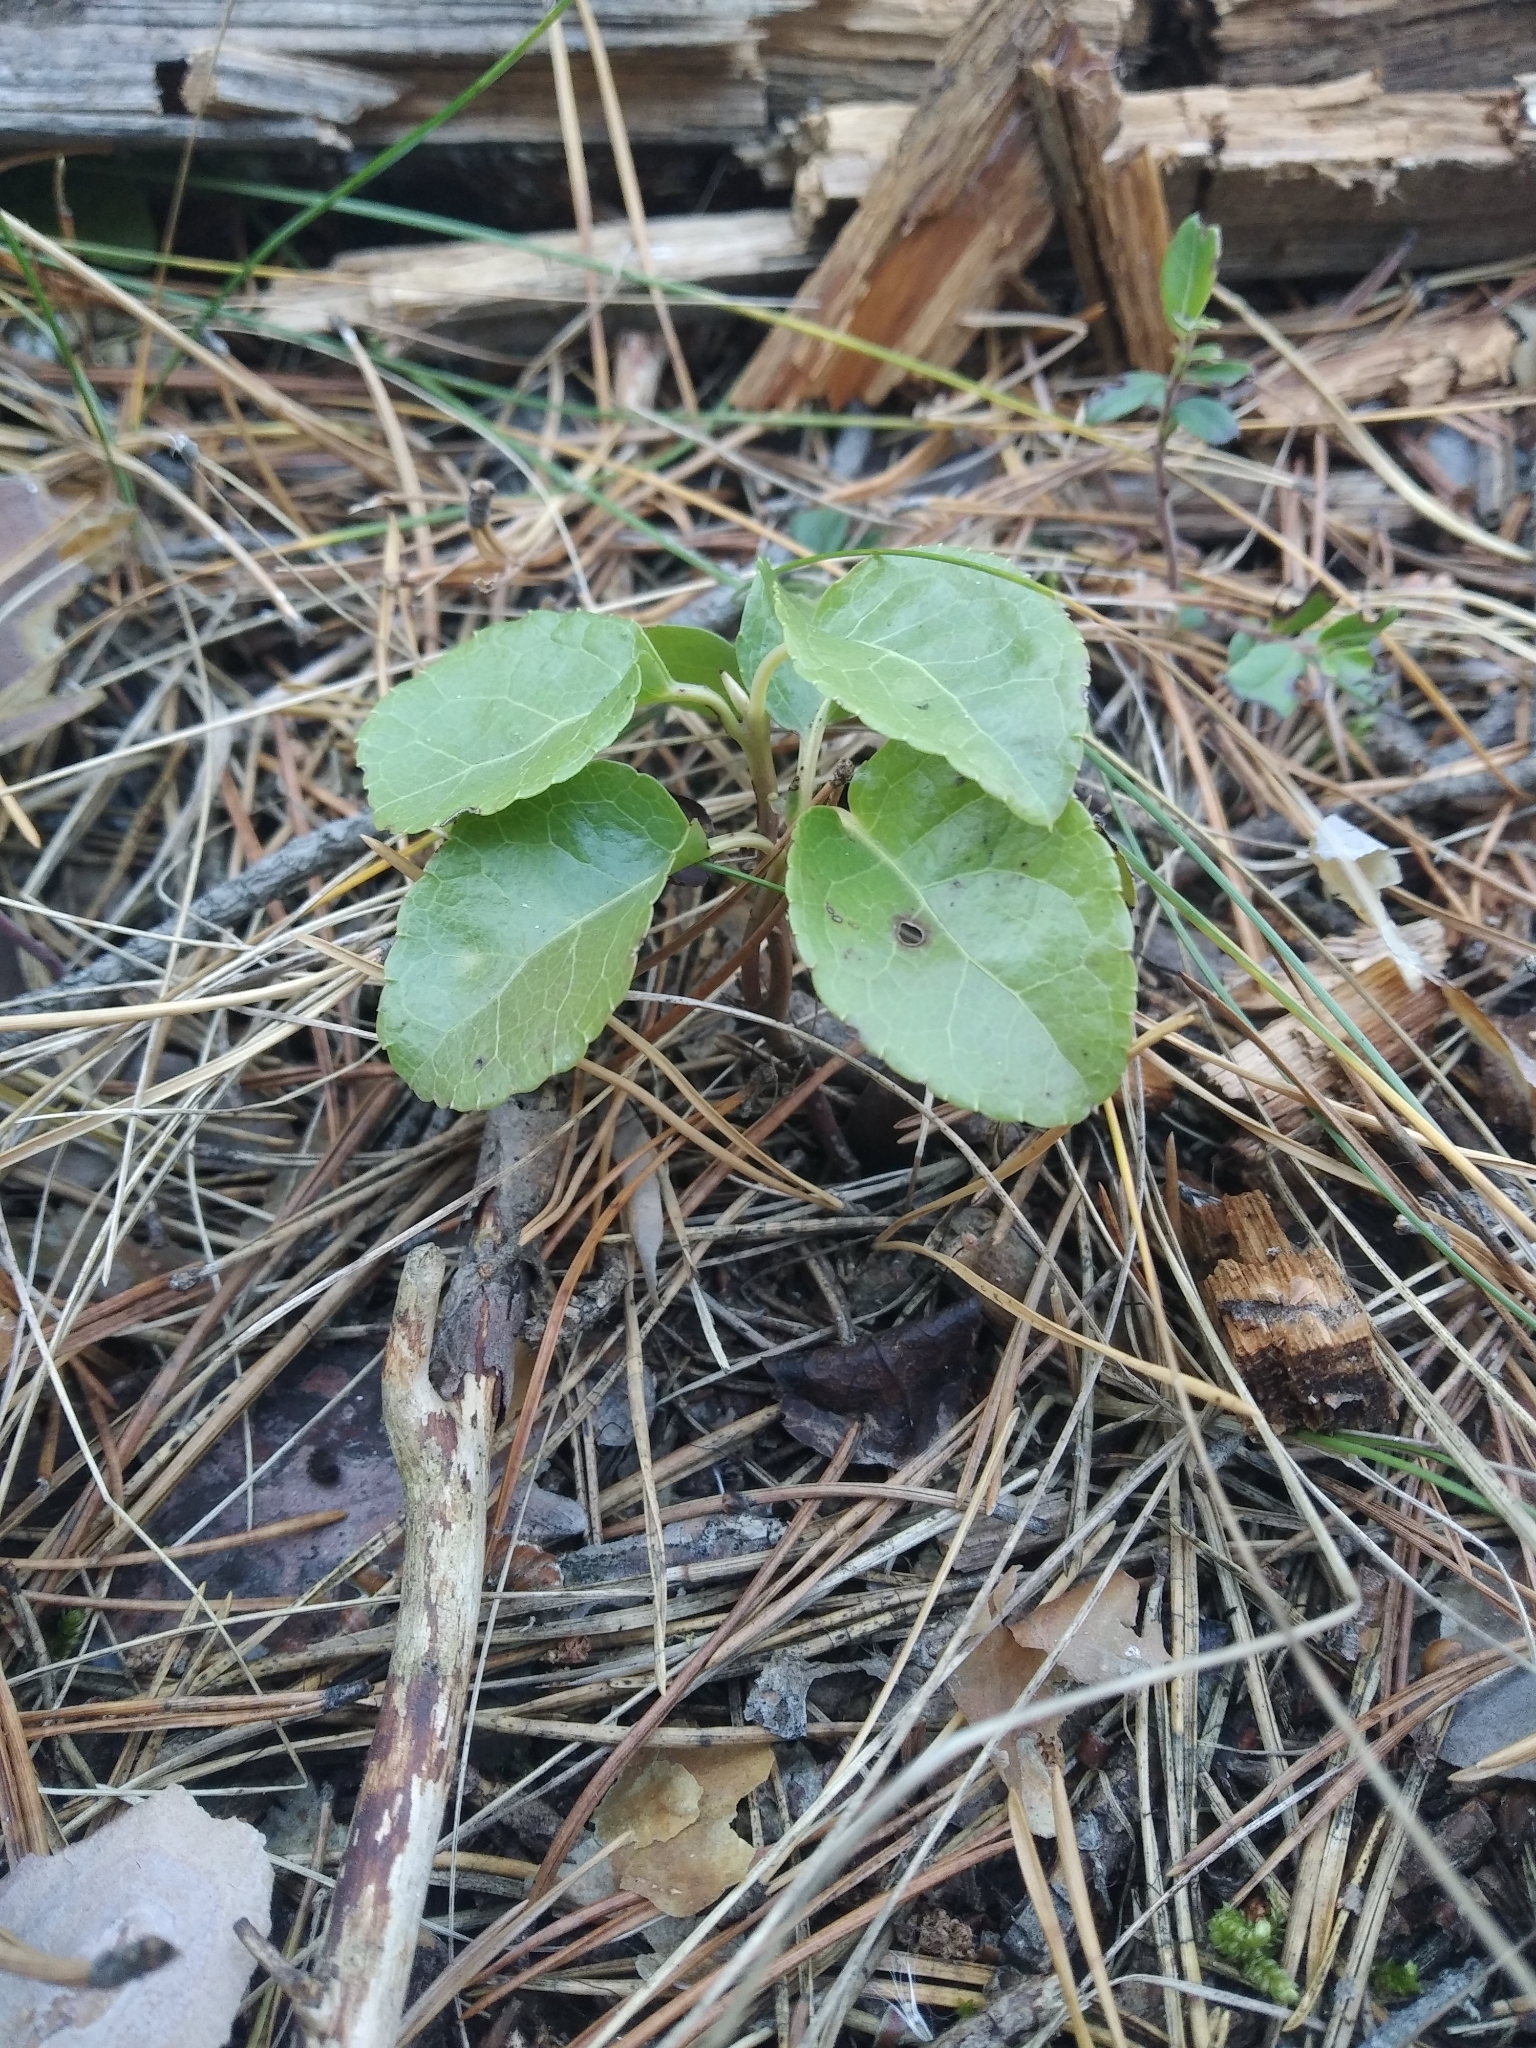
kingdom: Plantae
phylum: Tracheophyta
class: Magnoliopsida
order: Ericales
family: Ericaceae
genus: Orthilia
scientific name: Orthilia secunda
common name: One-sided orthilia
